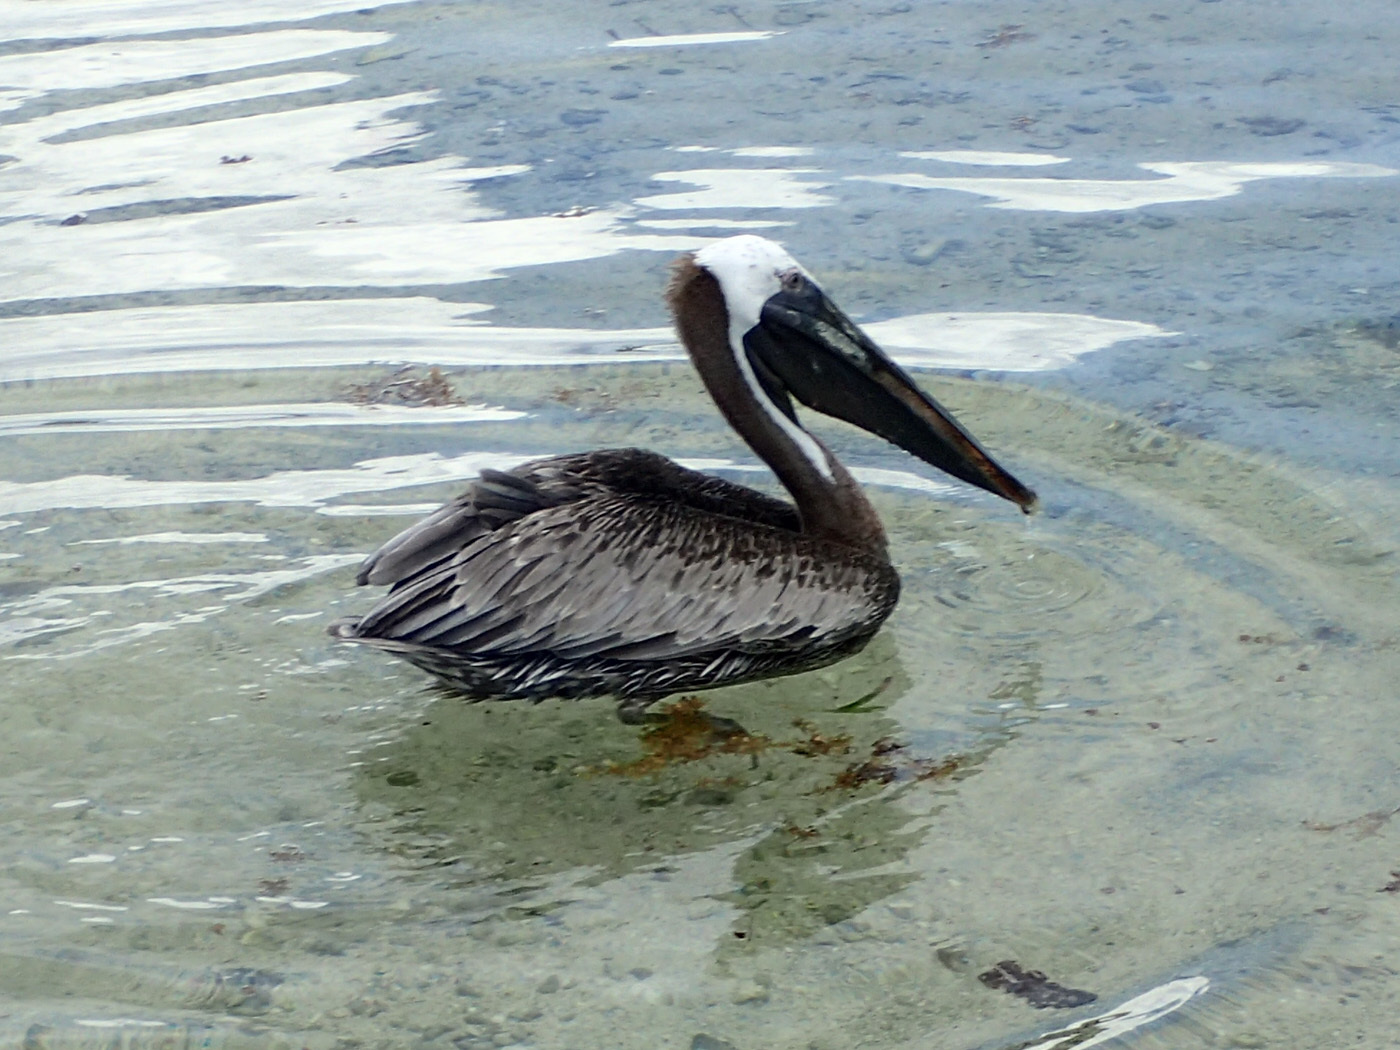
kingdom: Animalia
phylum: Chordata
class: Aves
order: Pelecaniformes
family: Pelecanidae
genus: Pelecanus
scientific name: Pelecanus occidentalis
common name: Brown pelican
